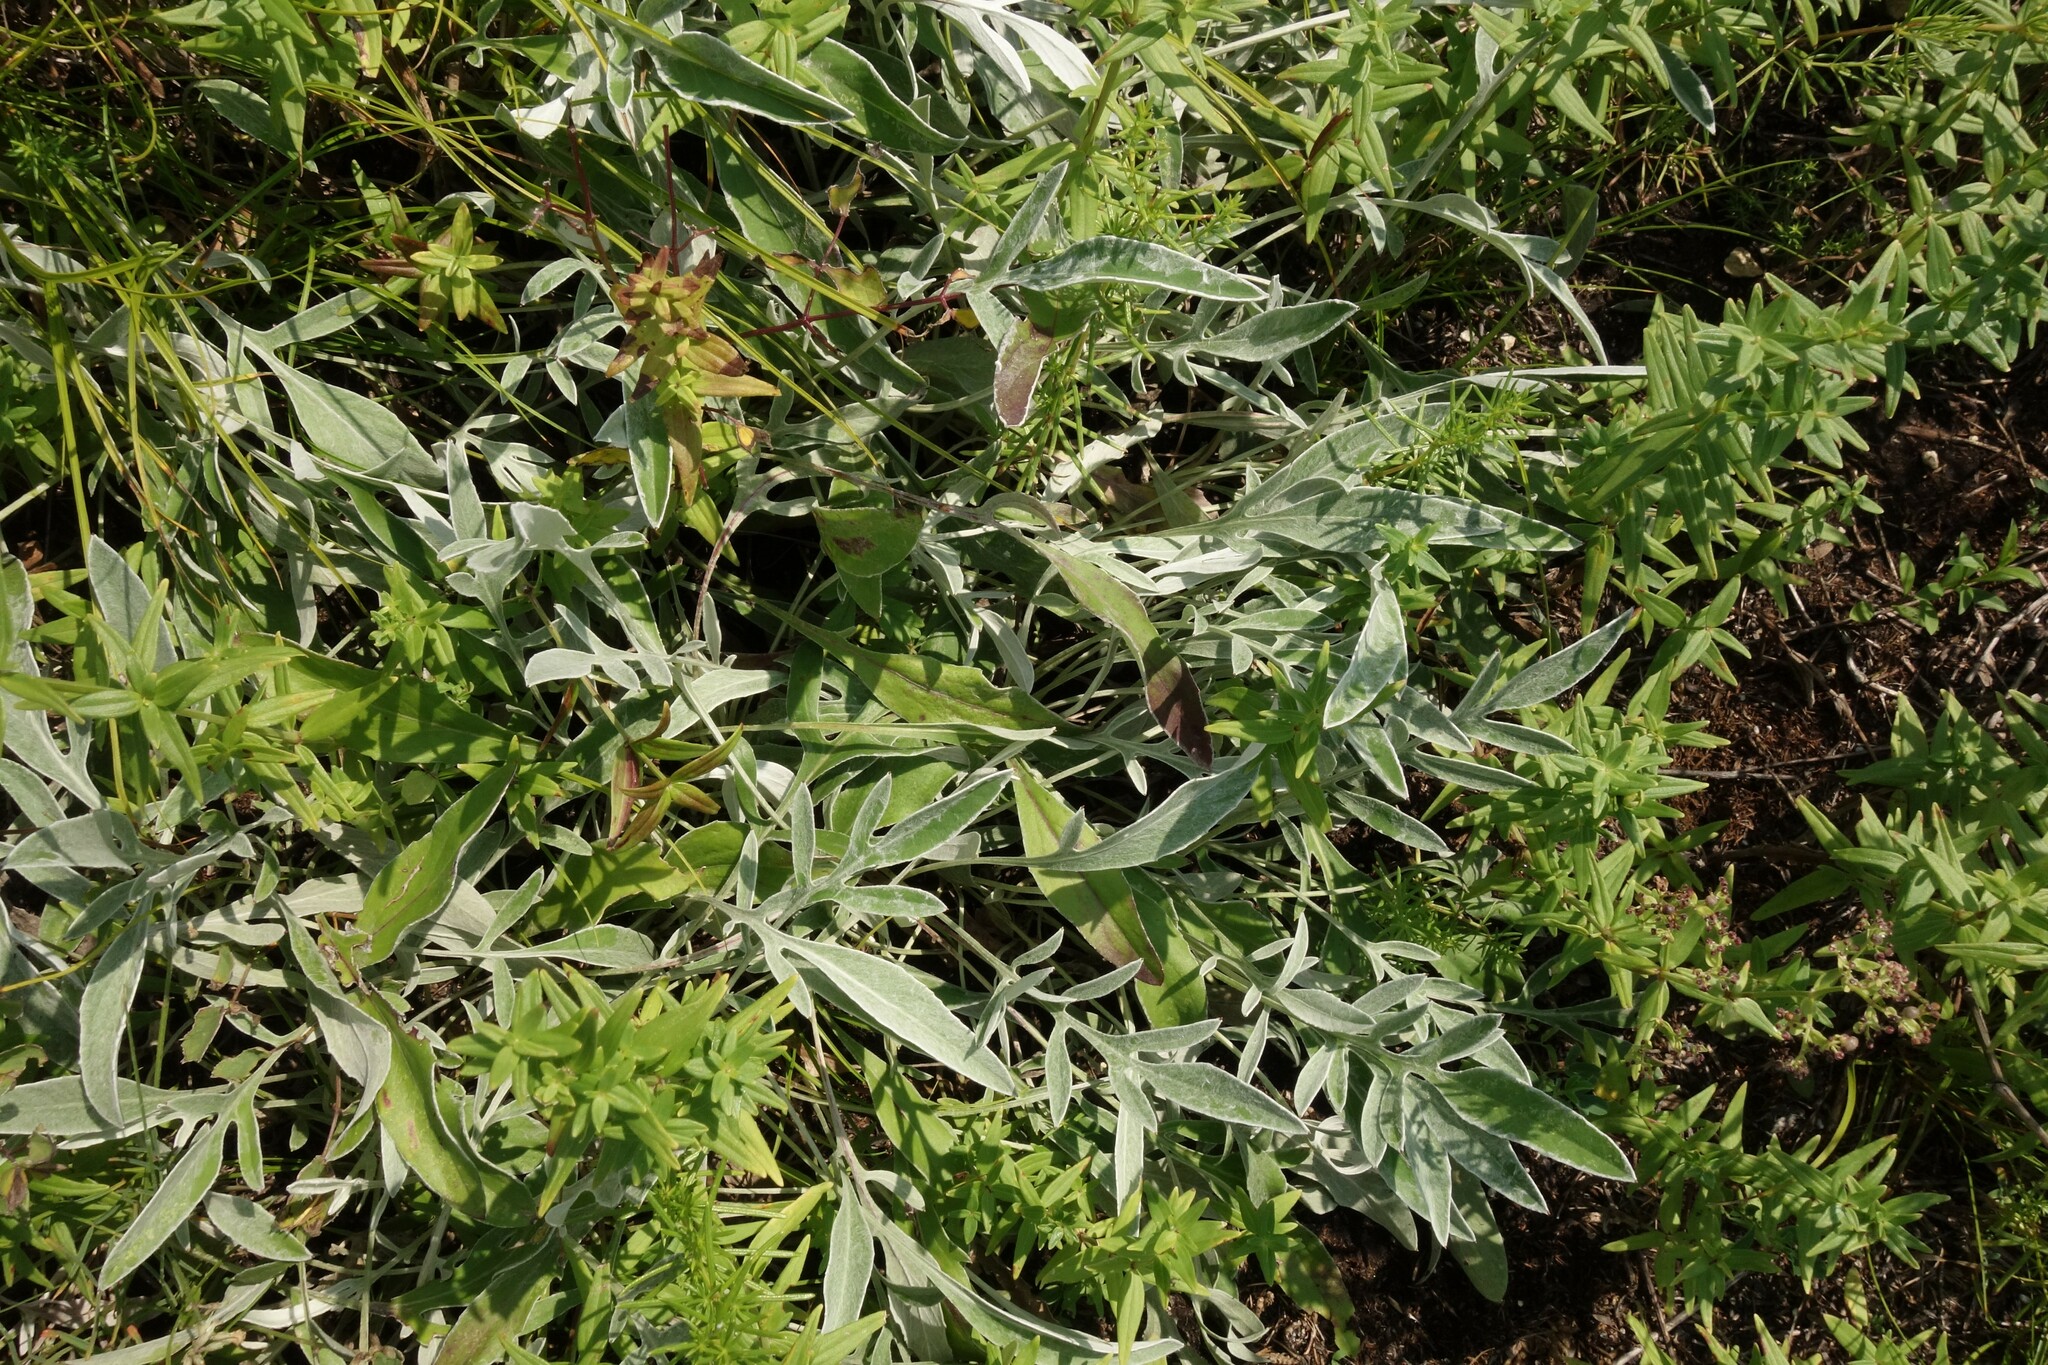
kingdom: Plantae
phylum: Tracheophyta
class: Magnoliopsida
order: Asterales
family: Asteraceae
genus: Psephellus
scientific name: Psephellus sumensis
